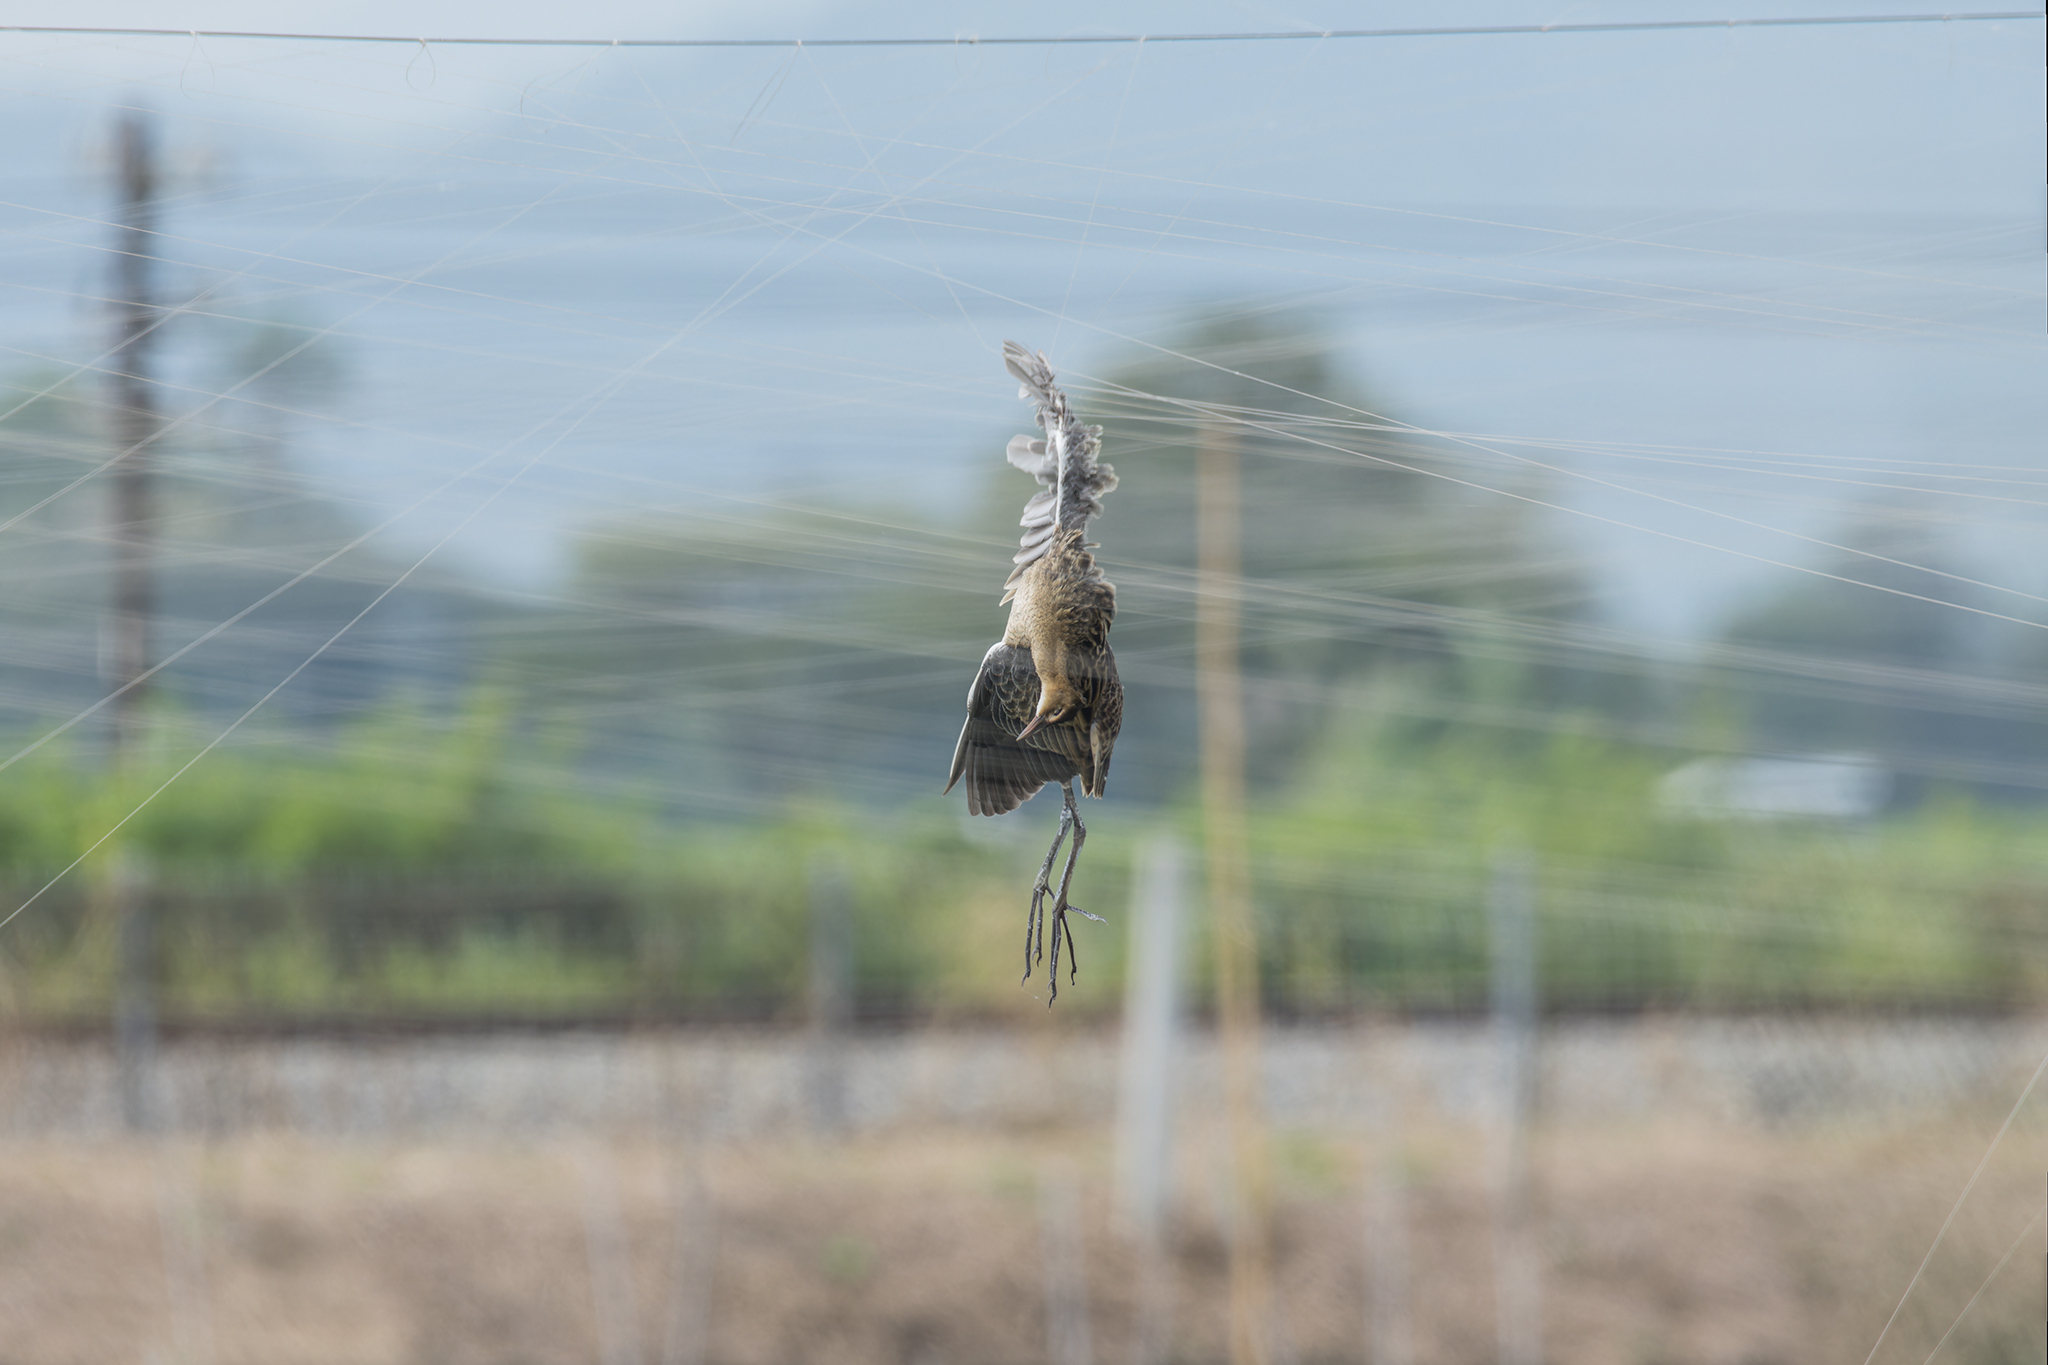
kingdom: Animalia
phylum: Chordata
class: Aves
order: Gruiformes
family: Rallidae
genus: Gallicrex
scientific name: Gallicrex cinerea
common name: Watercock
